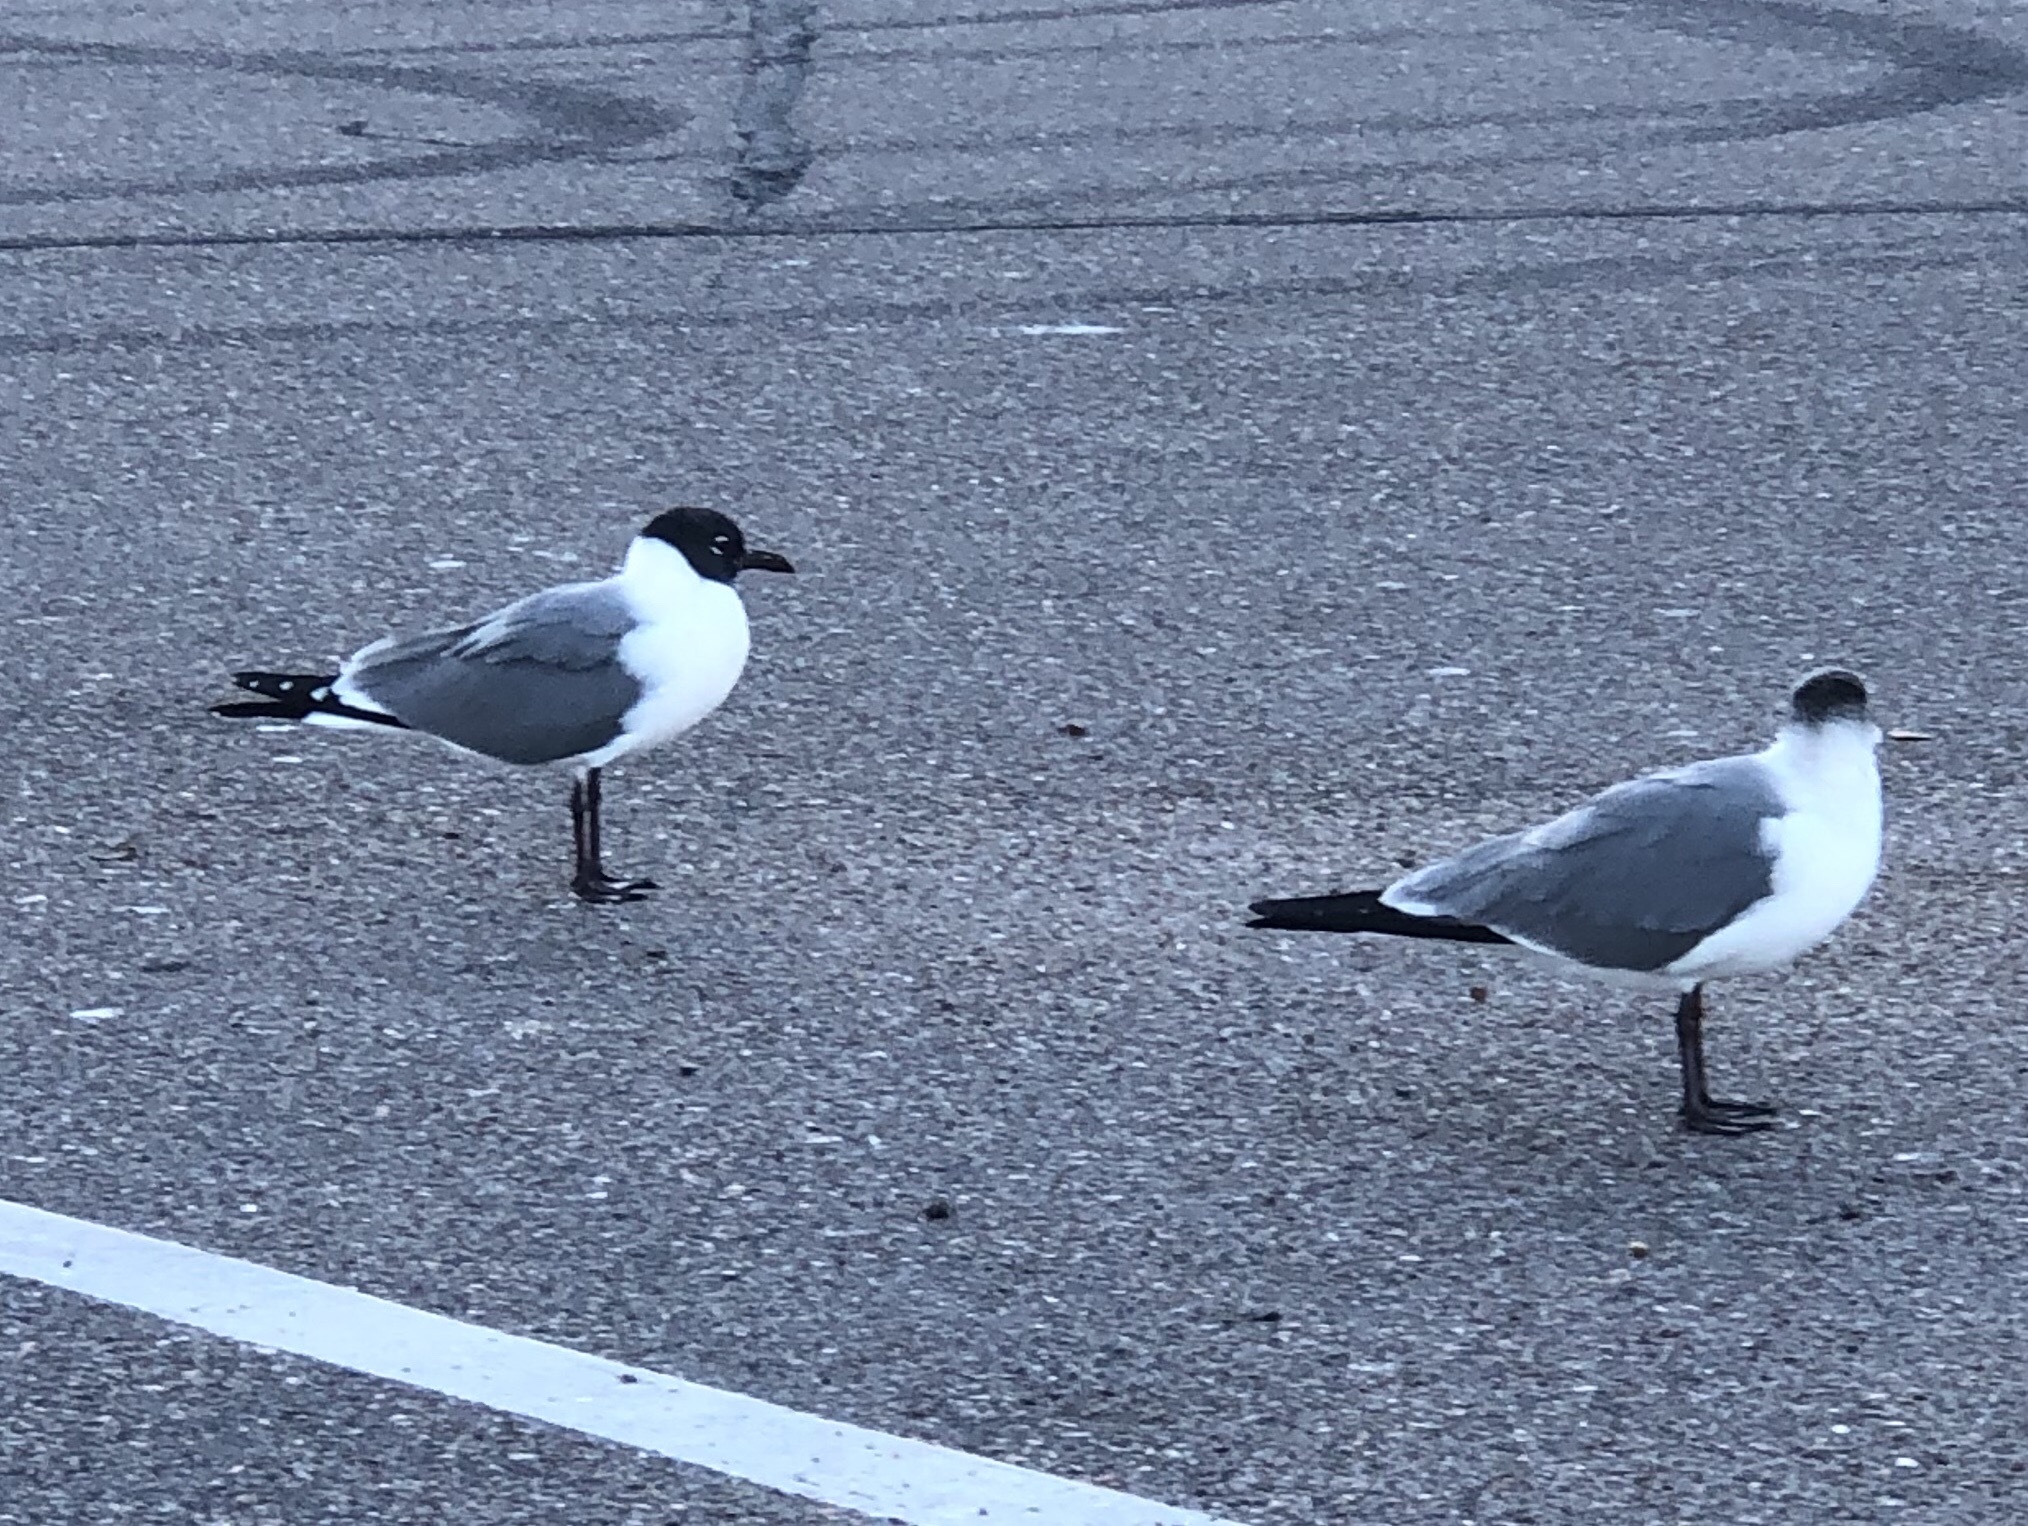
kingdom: Animalia
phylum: Chordata
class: Aves
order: Charadriiformes
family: Laridae
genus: Leucophaeus
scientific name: Leucophaeus atricilla
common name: Laughing gull
